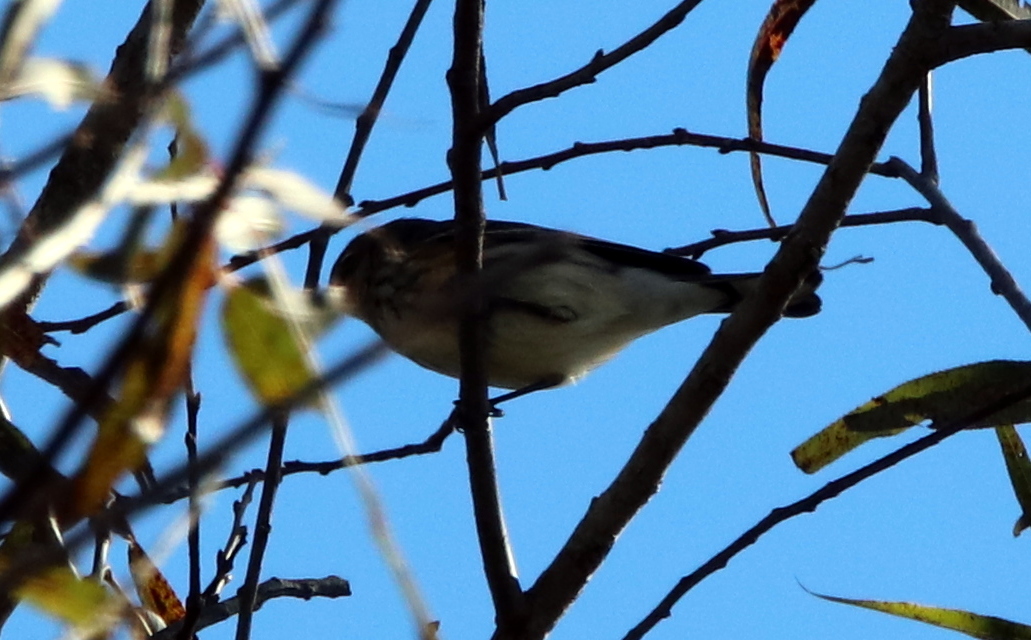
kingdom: Animalia
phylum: Chordata
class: Aves
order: Passeriformes
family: Parulidae
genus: Setophaga
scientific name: Setophaga coronata
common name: Myrtle warbler
